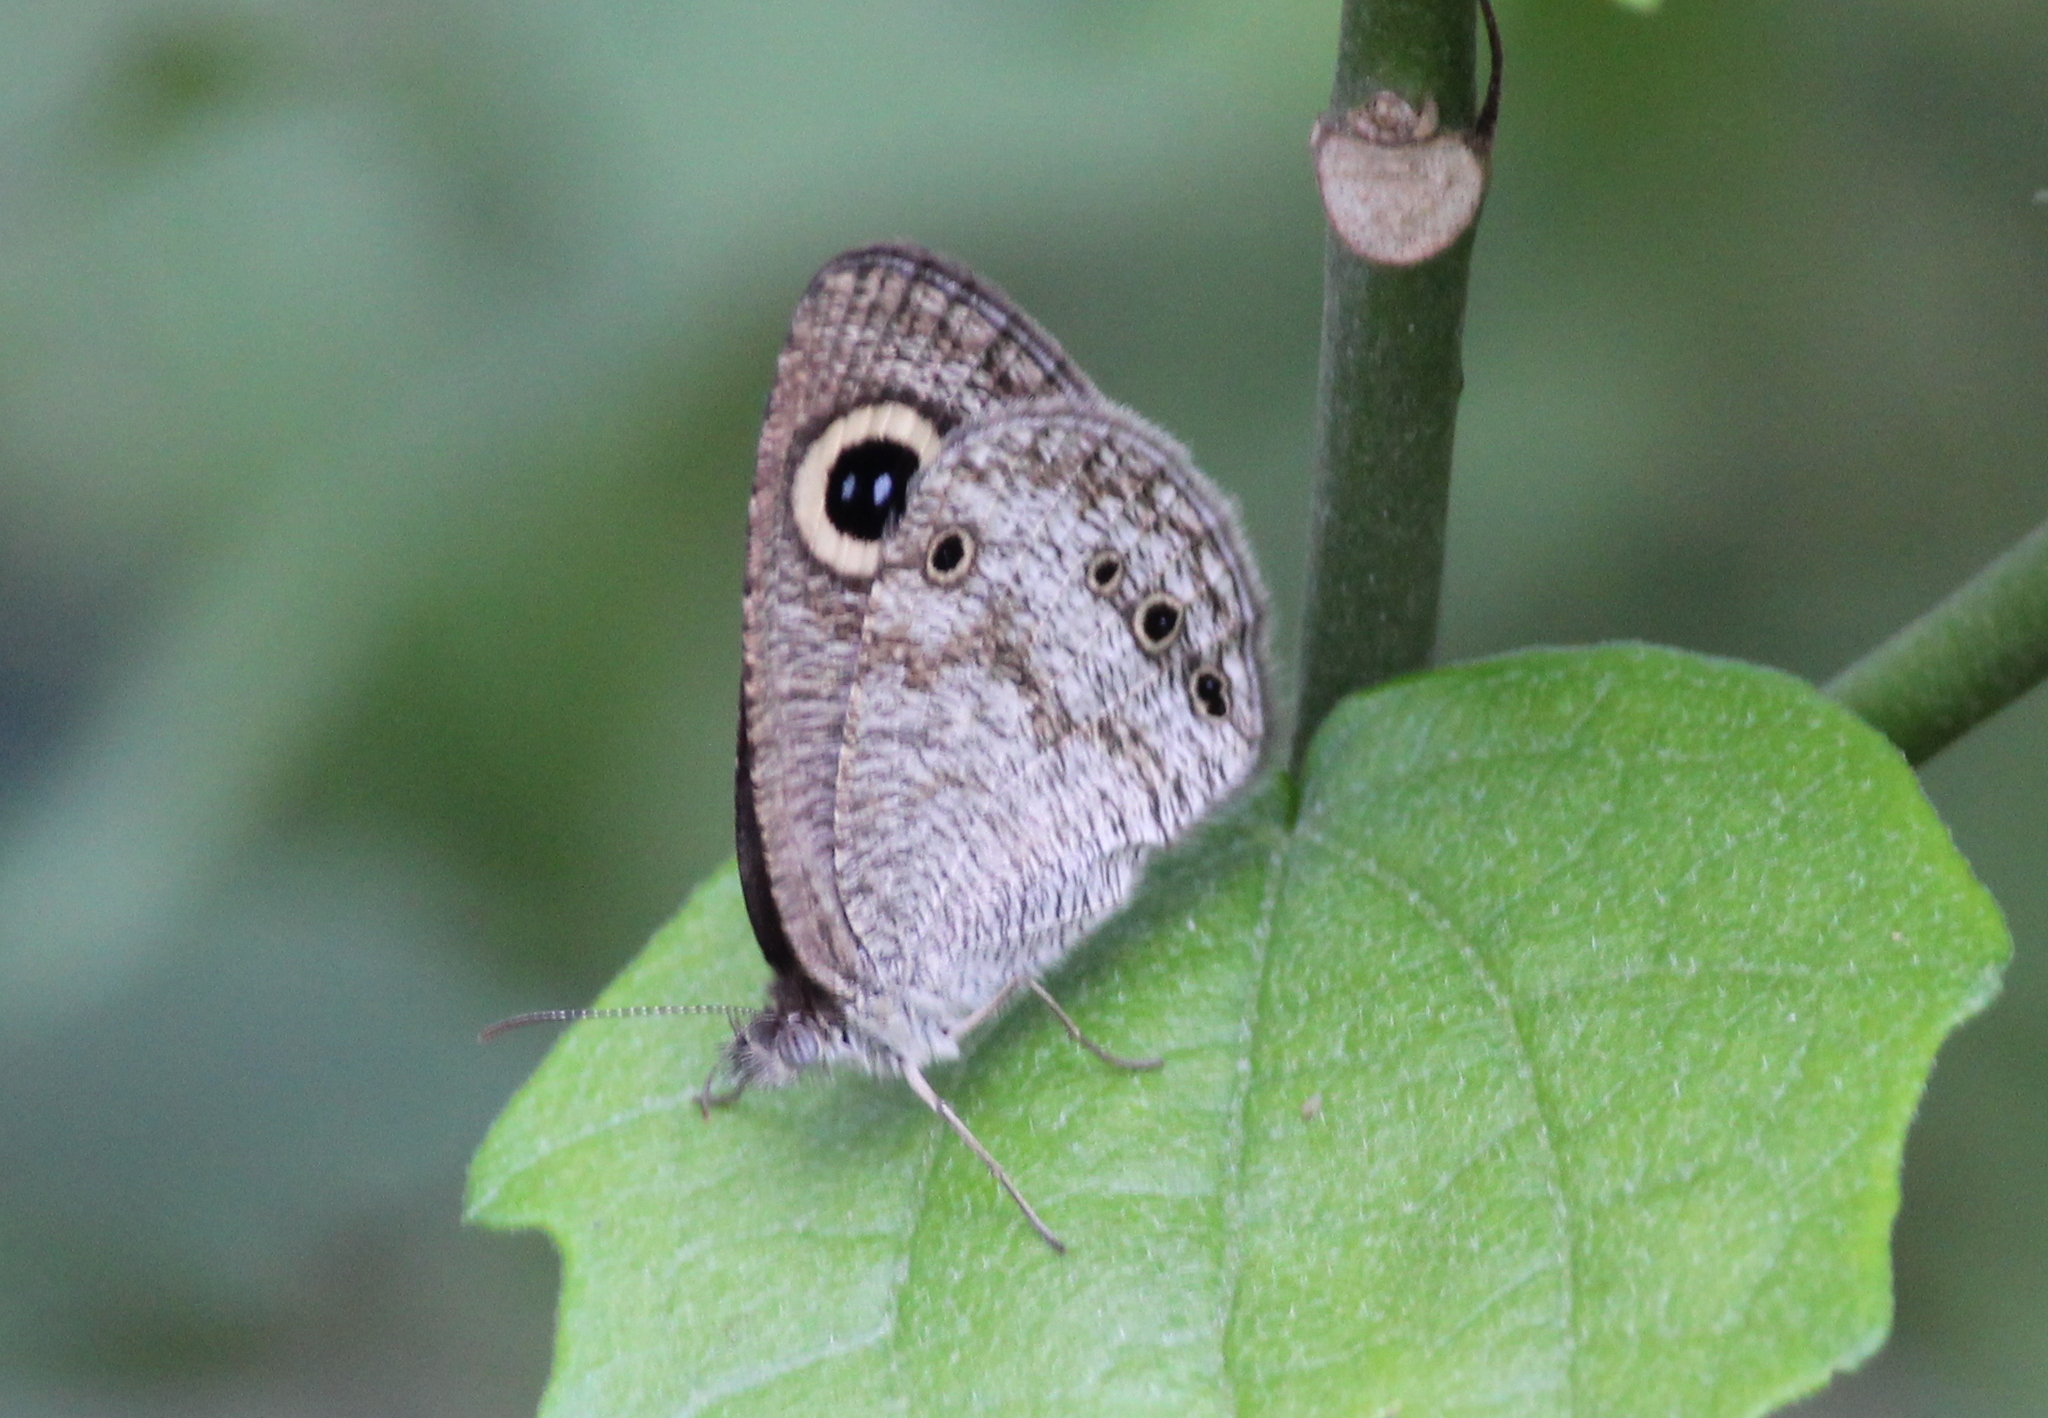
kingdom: Animalia
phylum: Arthropoda
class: Insecta
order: Lepidoptera
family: Nymphalidae
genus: Ypthima
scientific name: Ypthima huebneri
